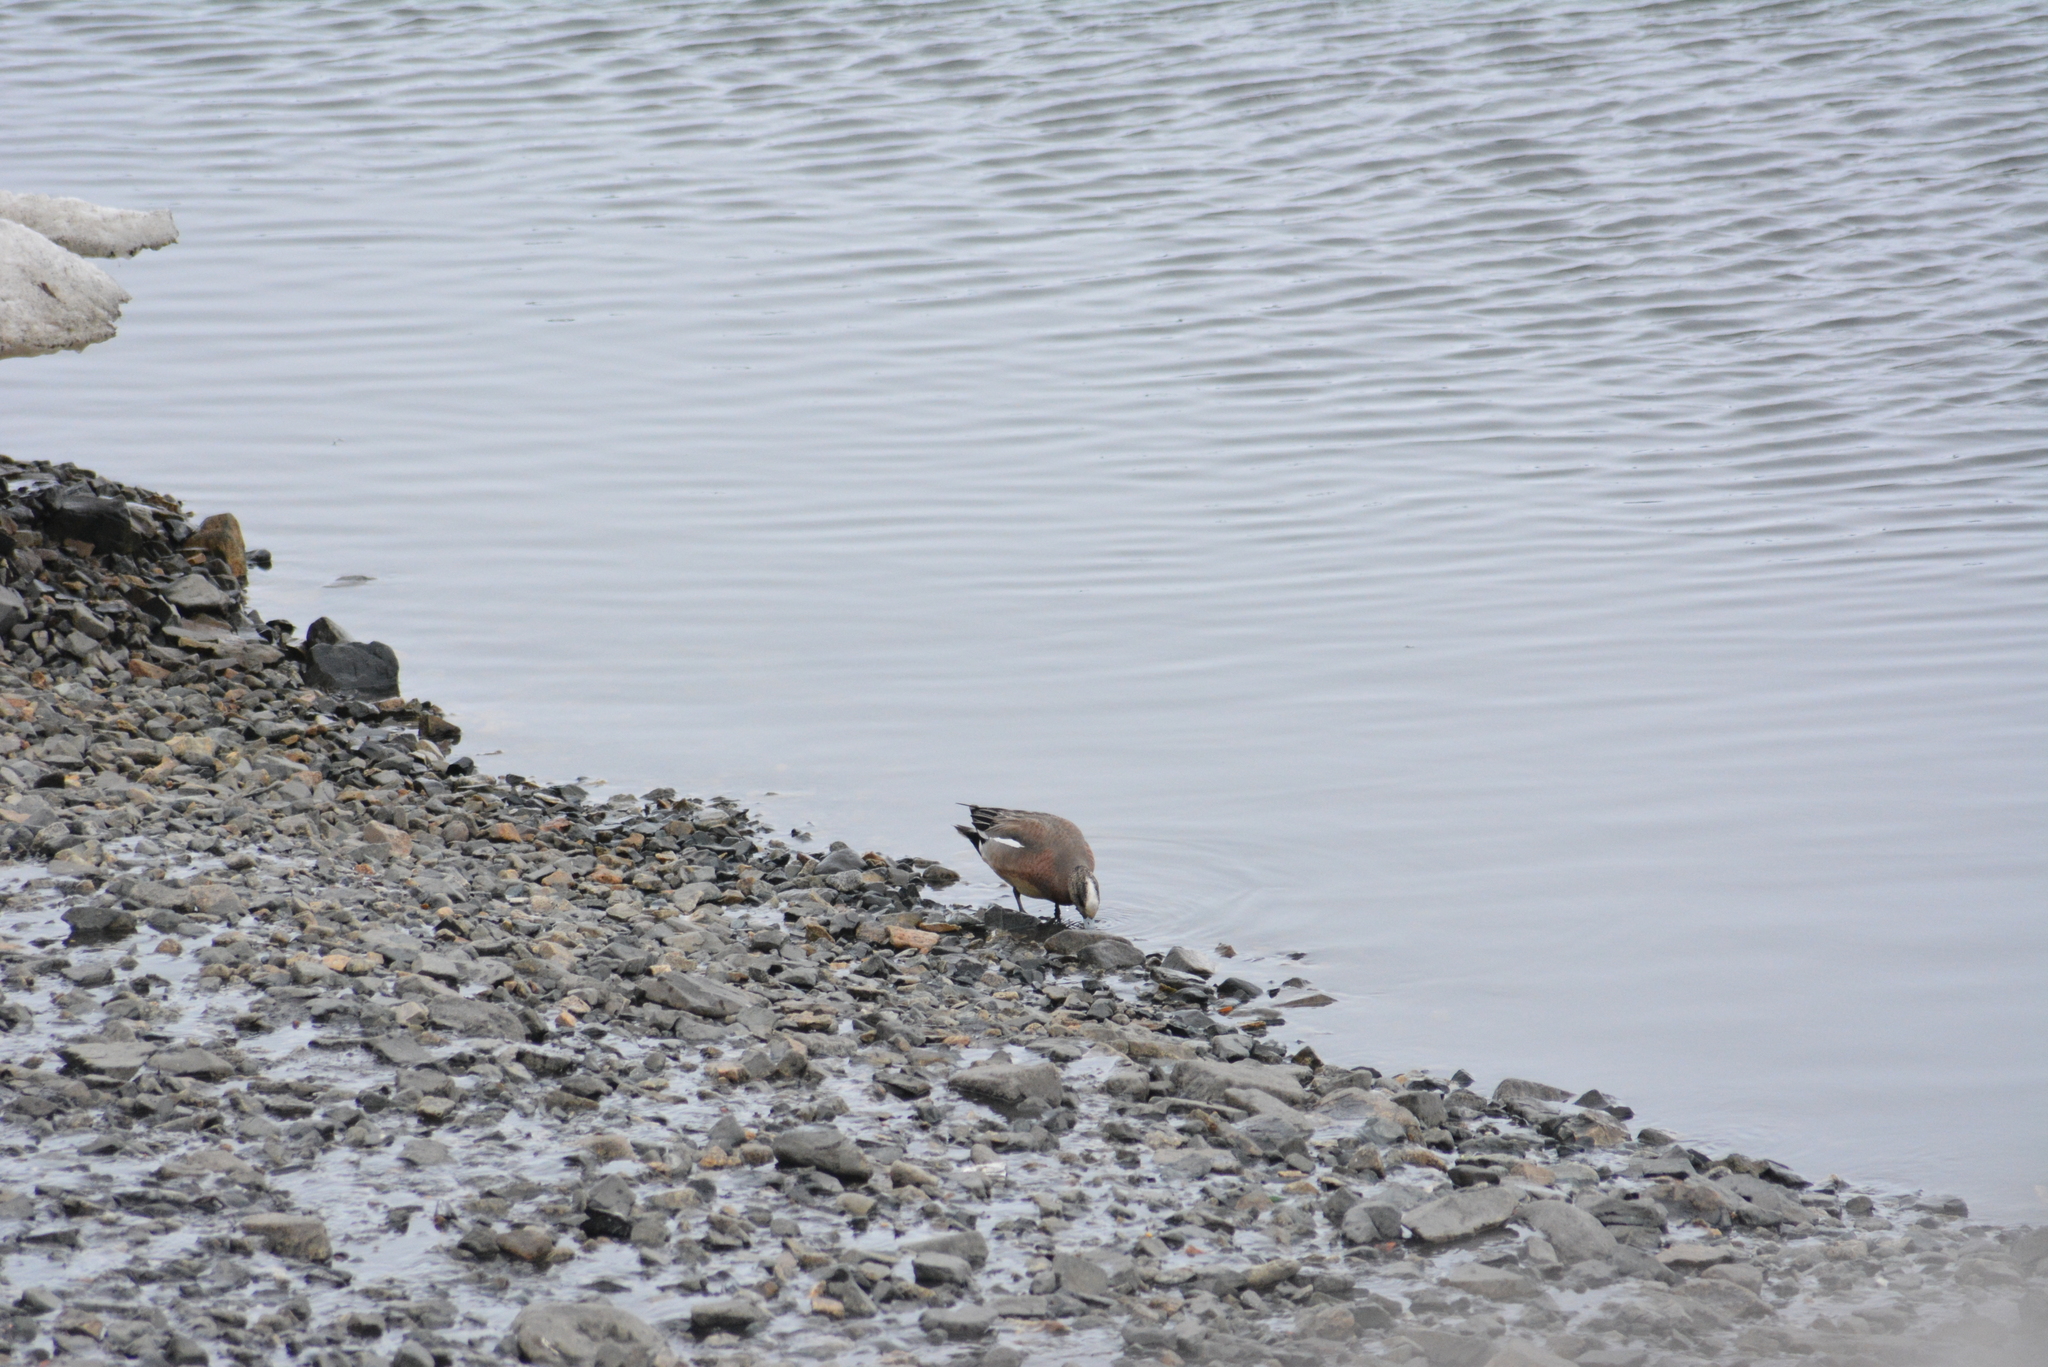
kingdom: Animalia
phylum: Chordata
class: Aves
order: Anseriformes
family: Anatidae
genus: Mareca
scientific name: Mareca americana
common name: American wigeon
